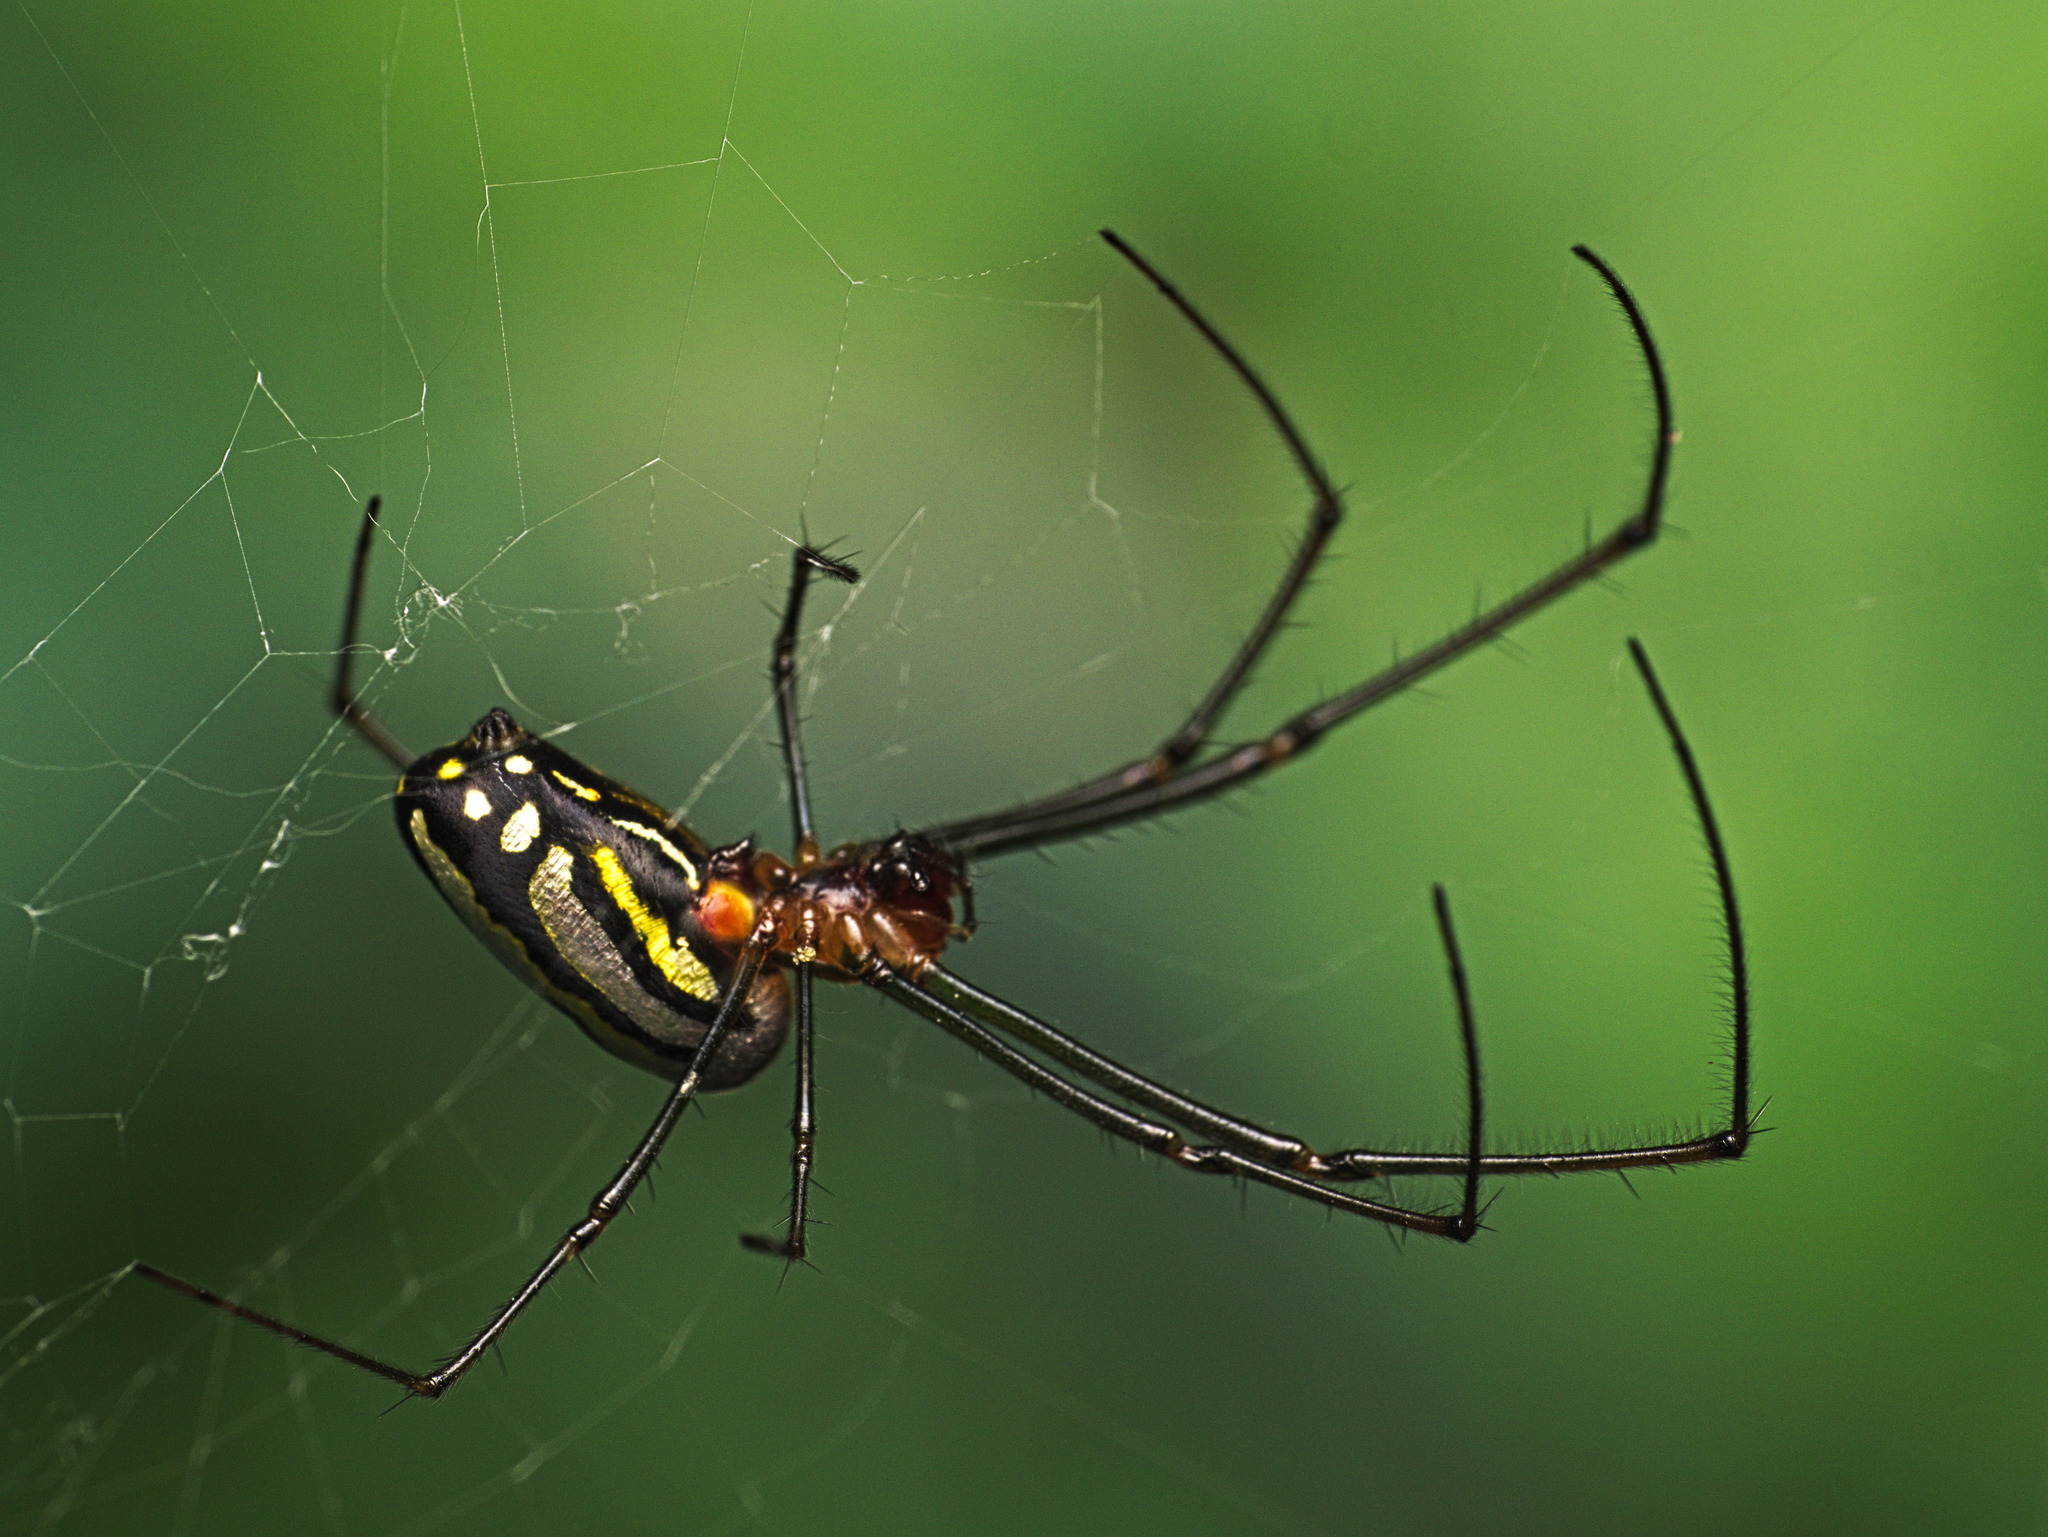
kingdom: Animalia
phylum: Arthropoda
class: Arachnida
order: Araneae
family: Tetragnathidae
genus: Leucauge
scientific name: Leucauge argyra
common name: Longjawed orb weavers
